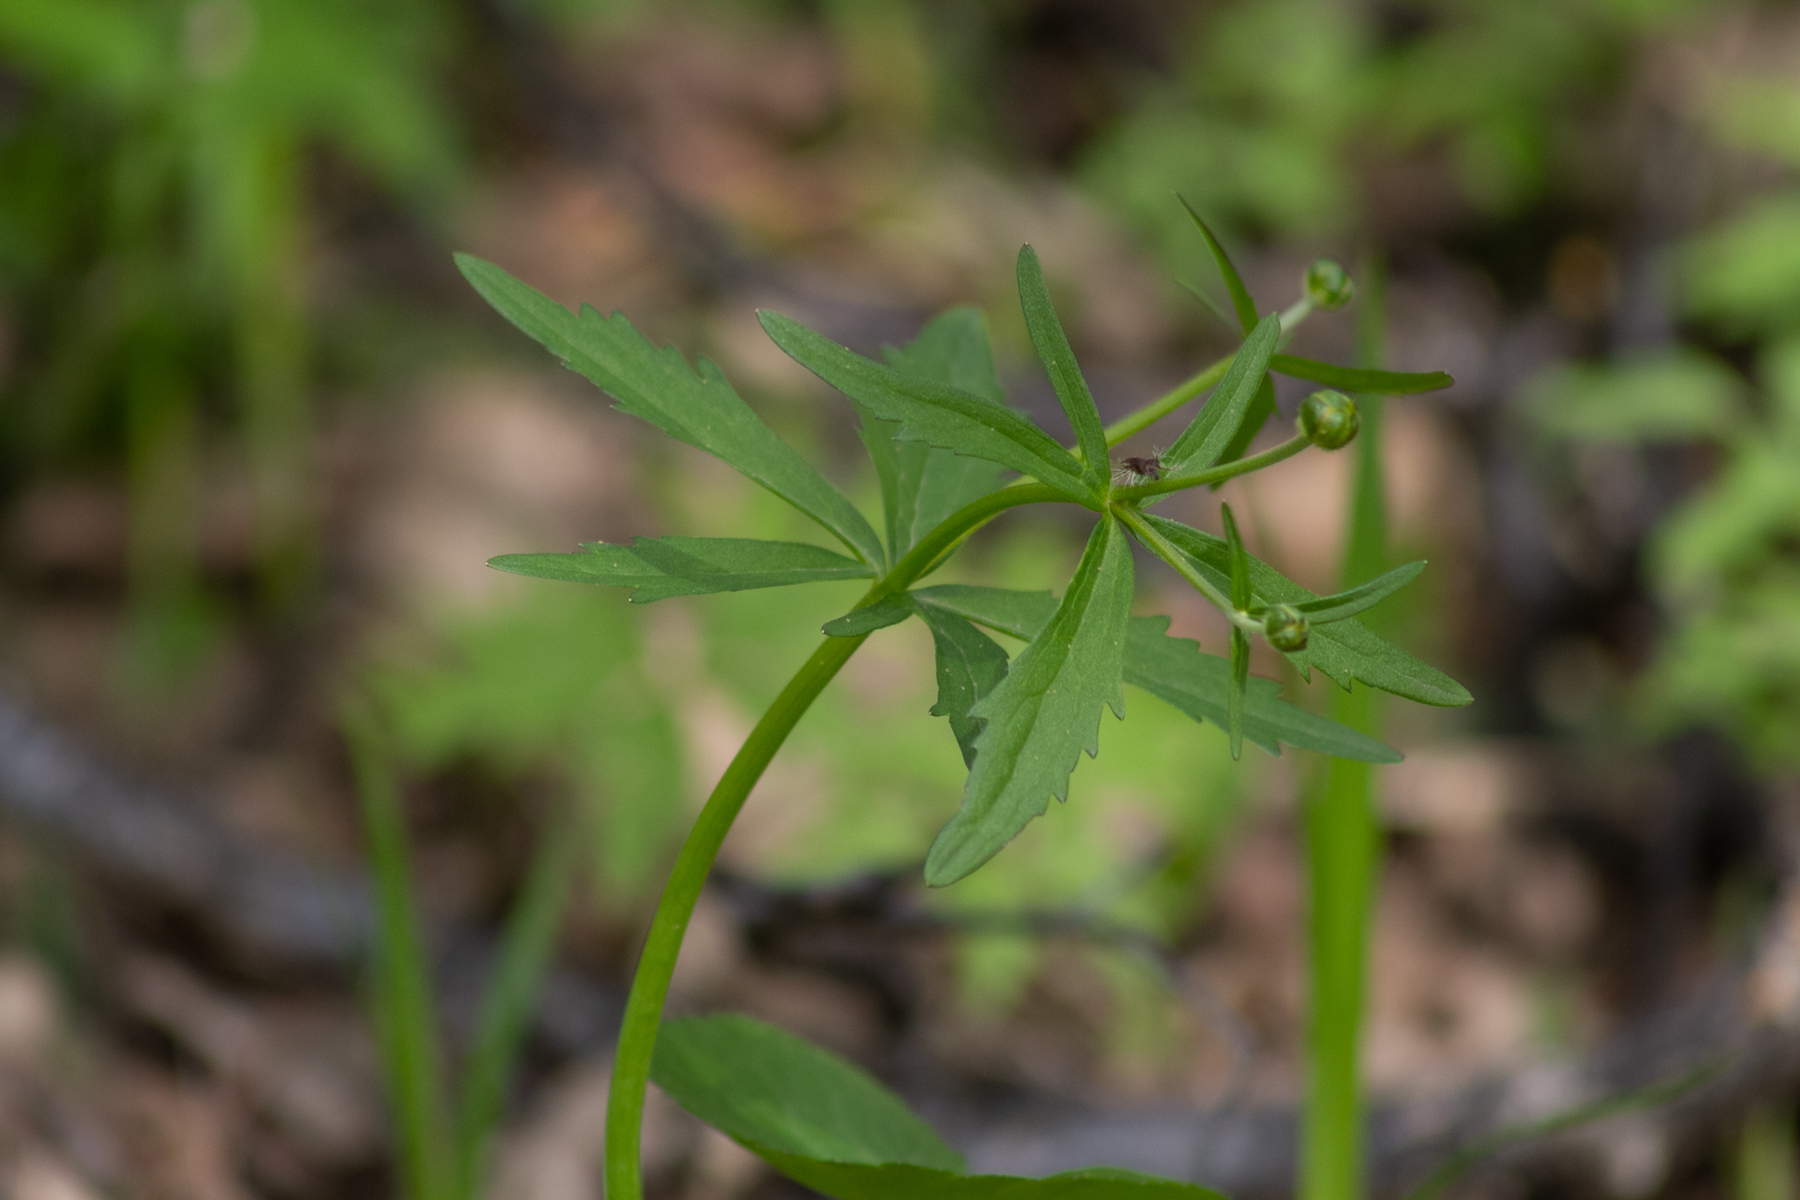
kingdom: Plantae
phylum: Tracheophyta
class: Magnoliopsida
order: Ranunculales
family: Ranunculaceae
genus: Ranunculus
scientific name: Ranunculus cassubicus
